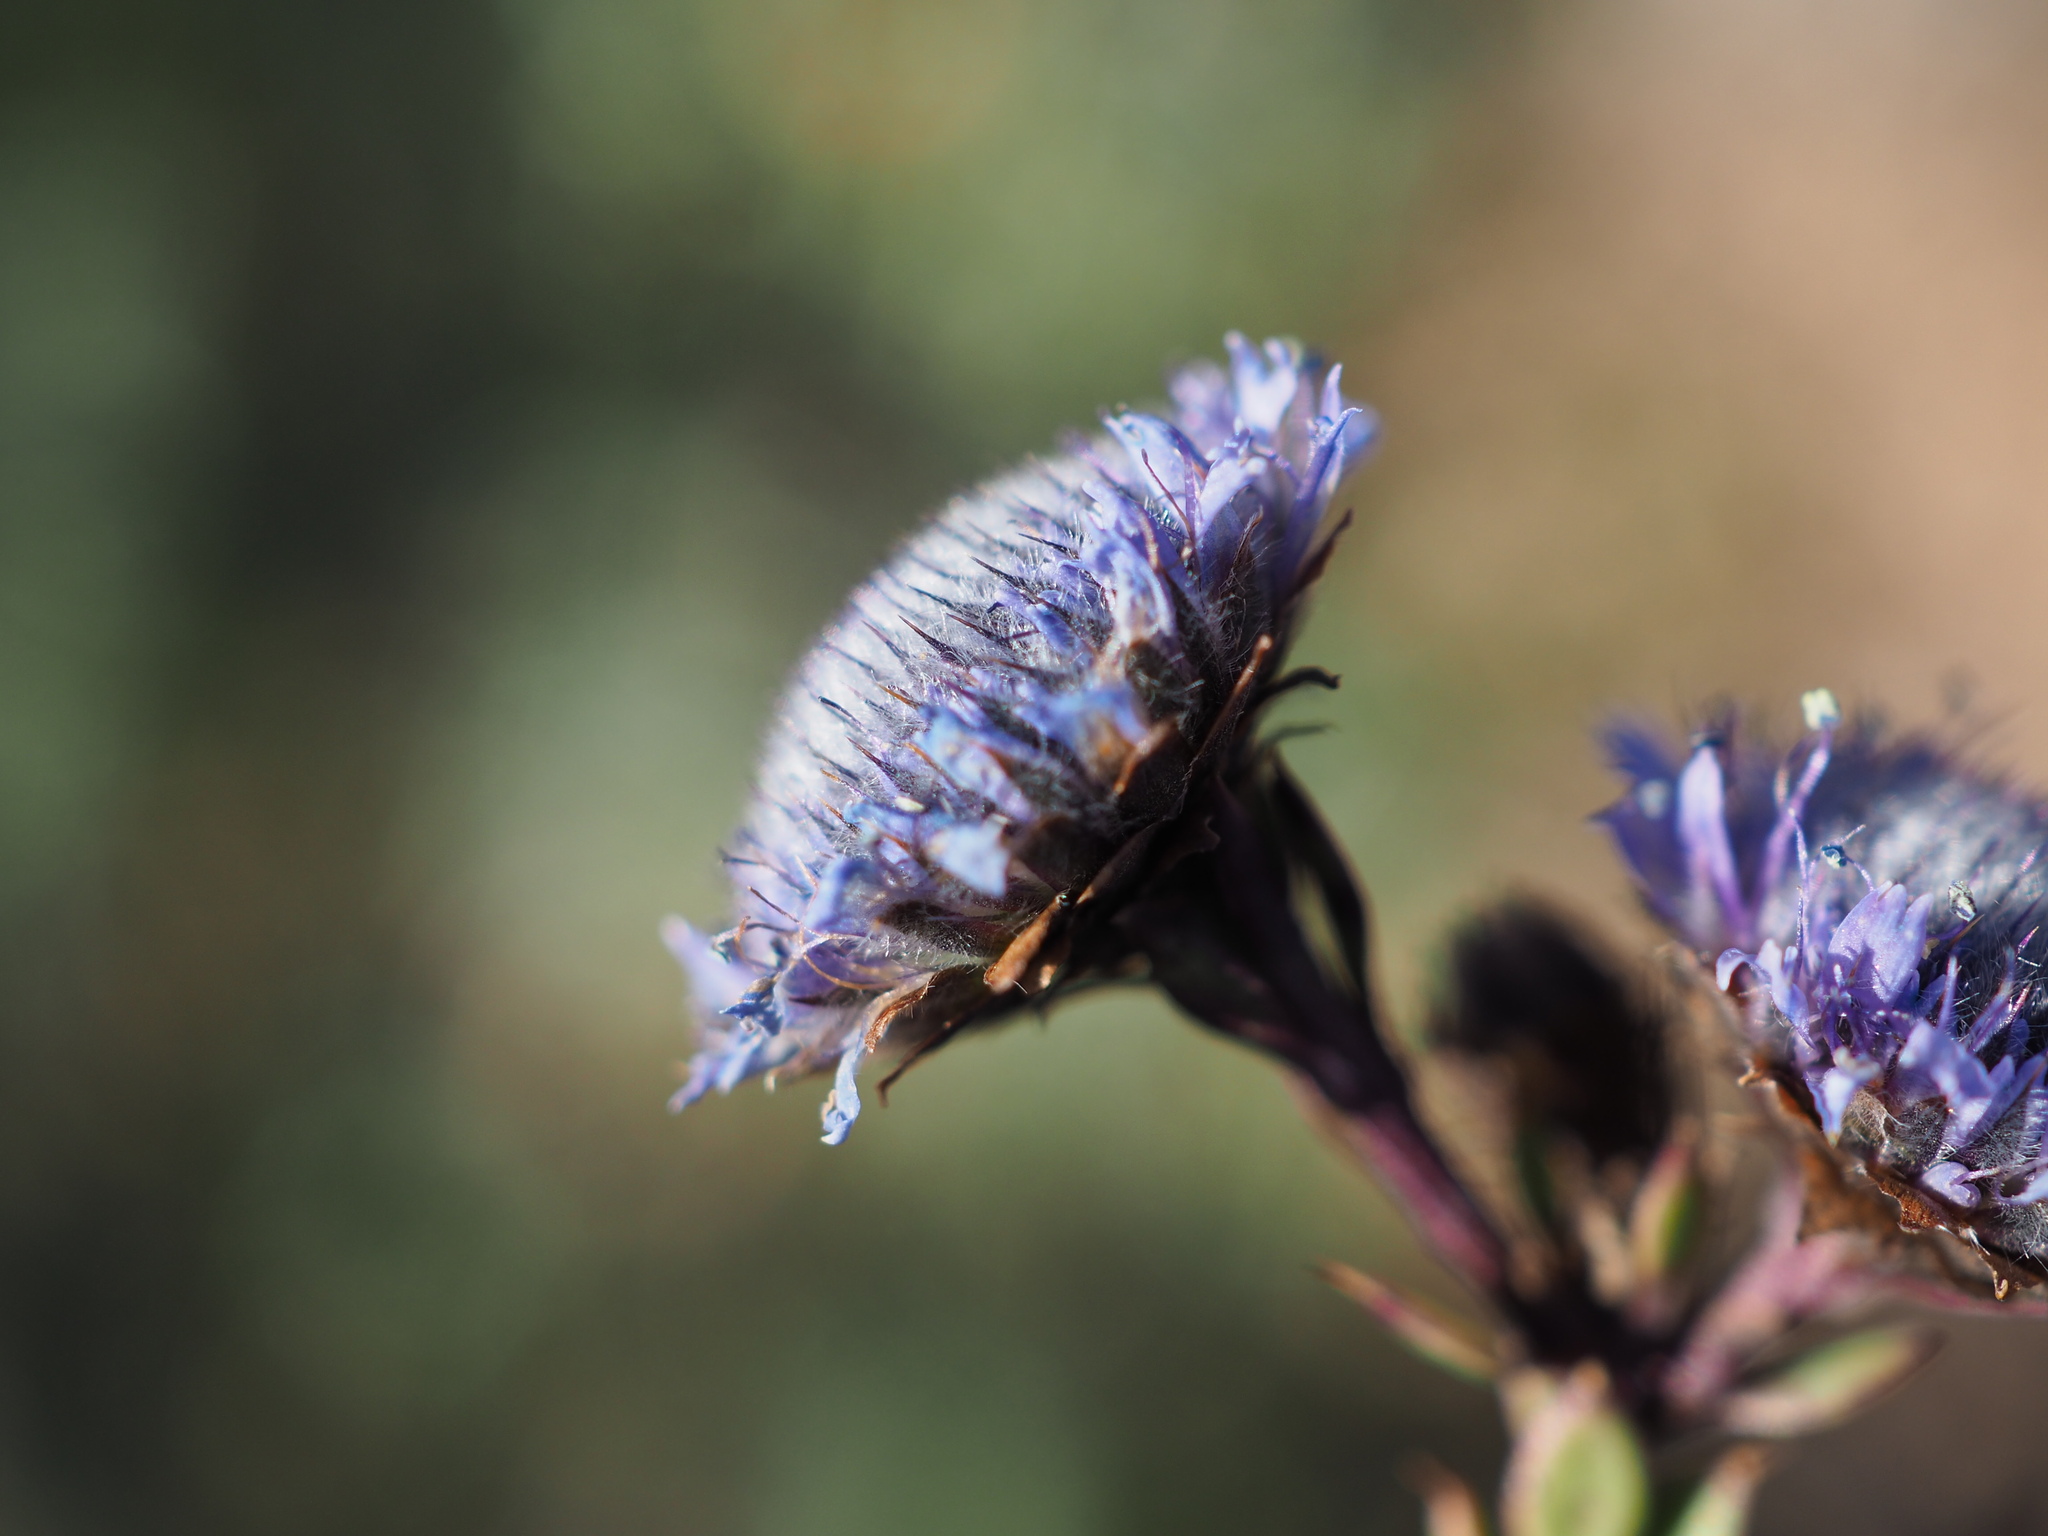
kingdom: Plantae
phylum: Tracheophyta
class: Magnoliopsida
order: Lamiales
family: Plantaginaceae
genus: Globularia
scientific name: Globularia alypum
